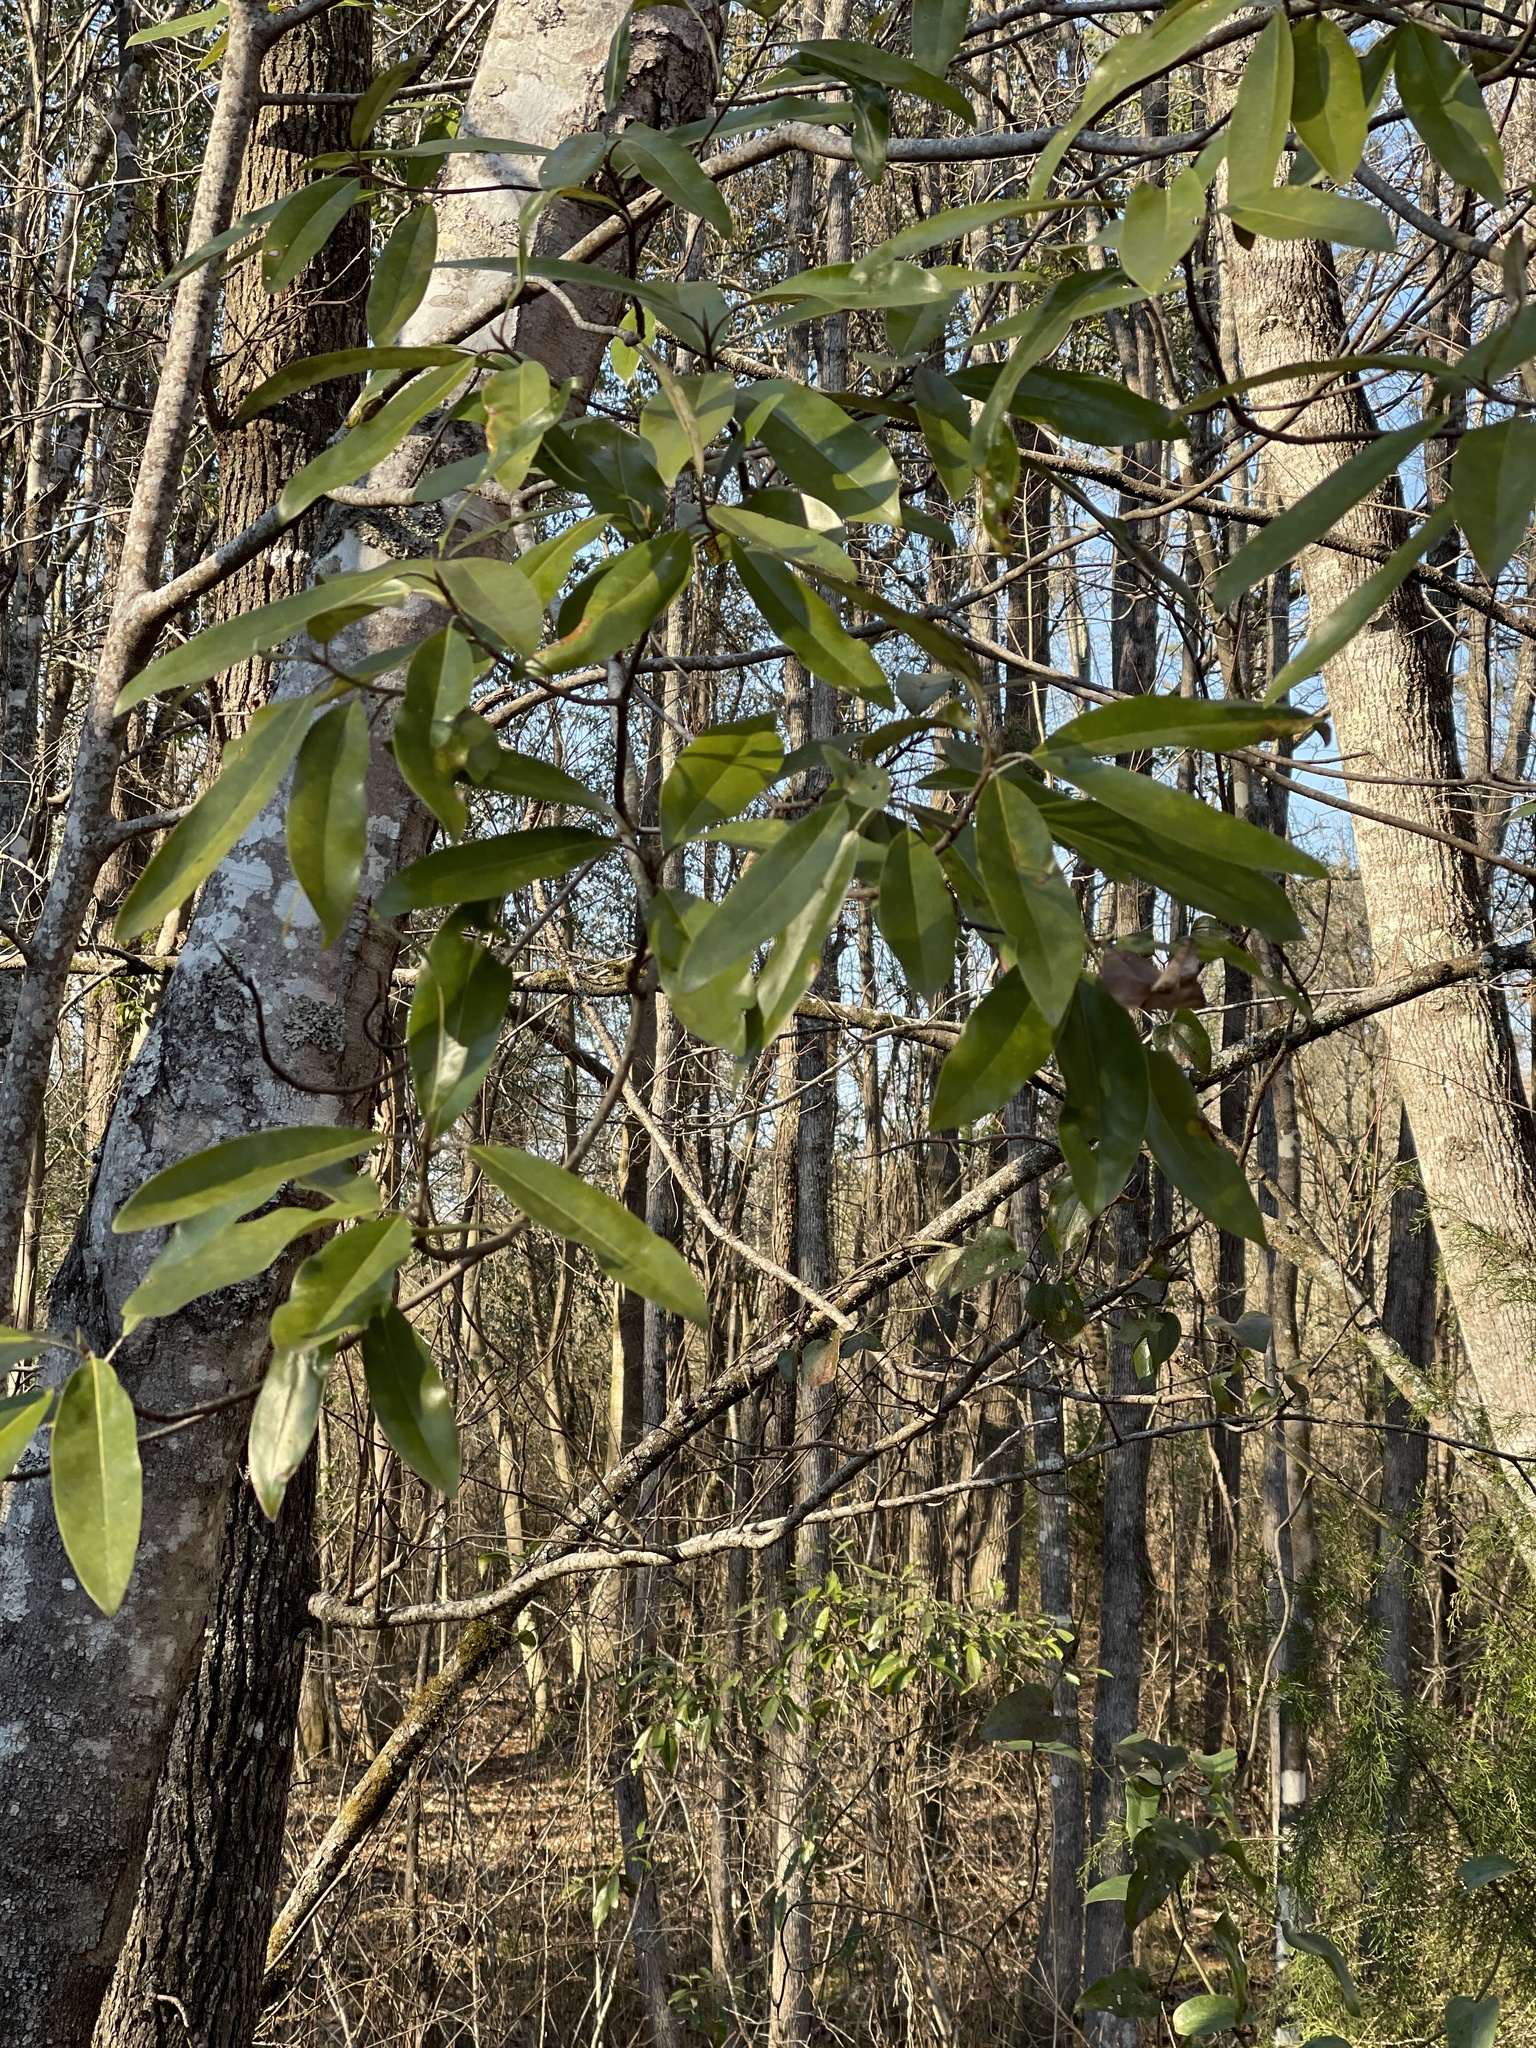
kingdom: Plantae
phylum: Tracheophyta
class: Magnoliopsida
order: Magnoliales
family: Magnoliaceae
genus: Magnolia
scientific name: Magnolia virginiana
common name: Swamp bay
